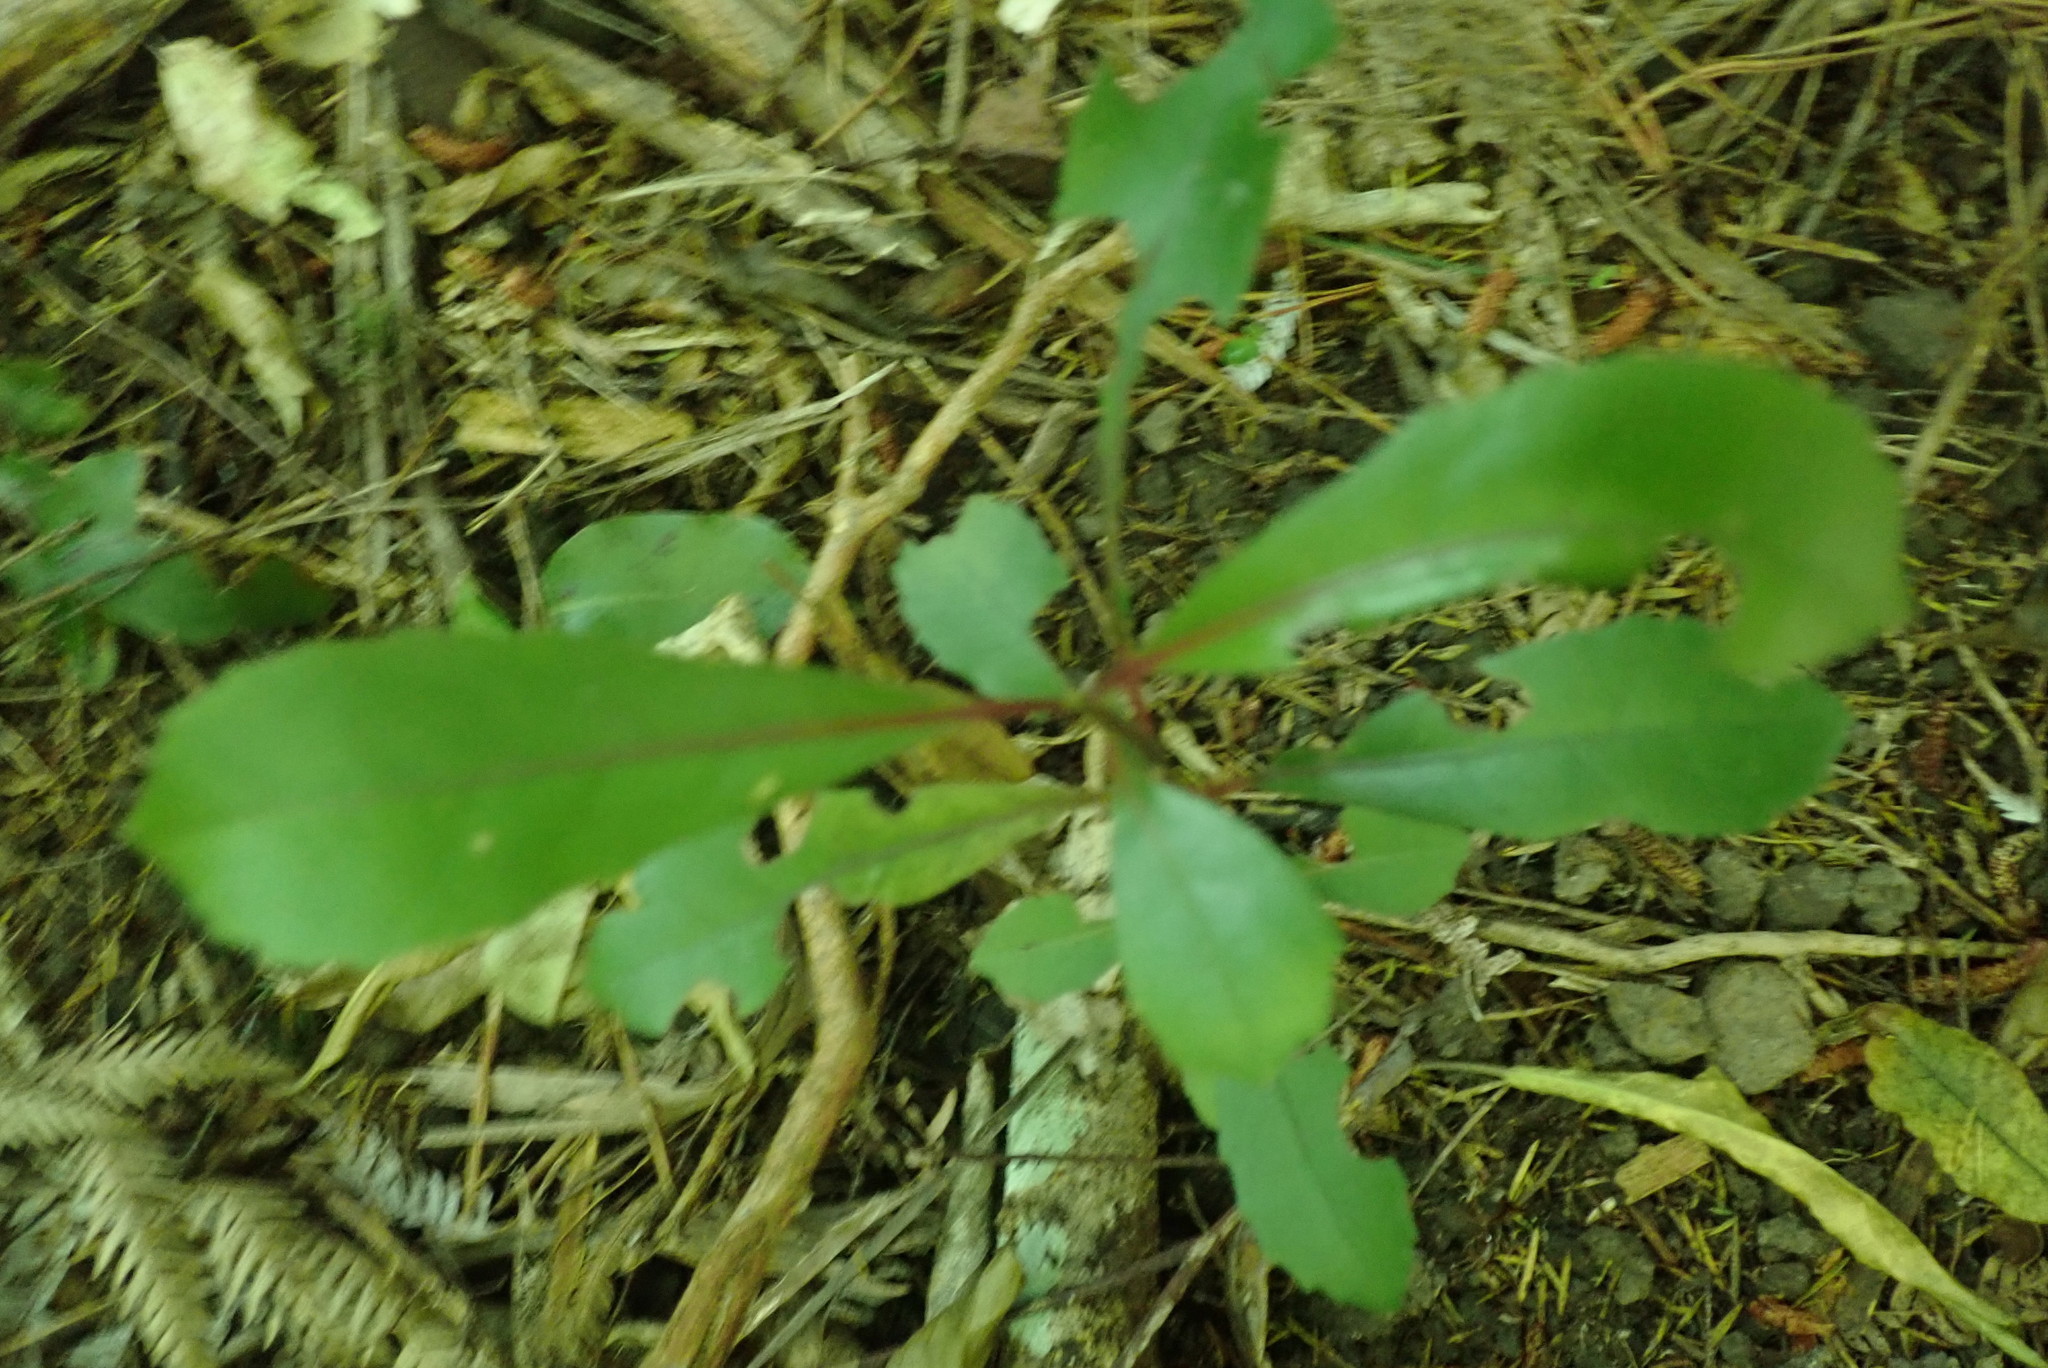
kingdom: Plantae
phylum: Tracheophyta
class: Magnoliopsida
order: Laurales
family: Monimiaceae
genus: Hedycarya
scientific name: Hedycarya arborea
